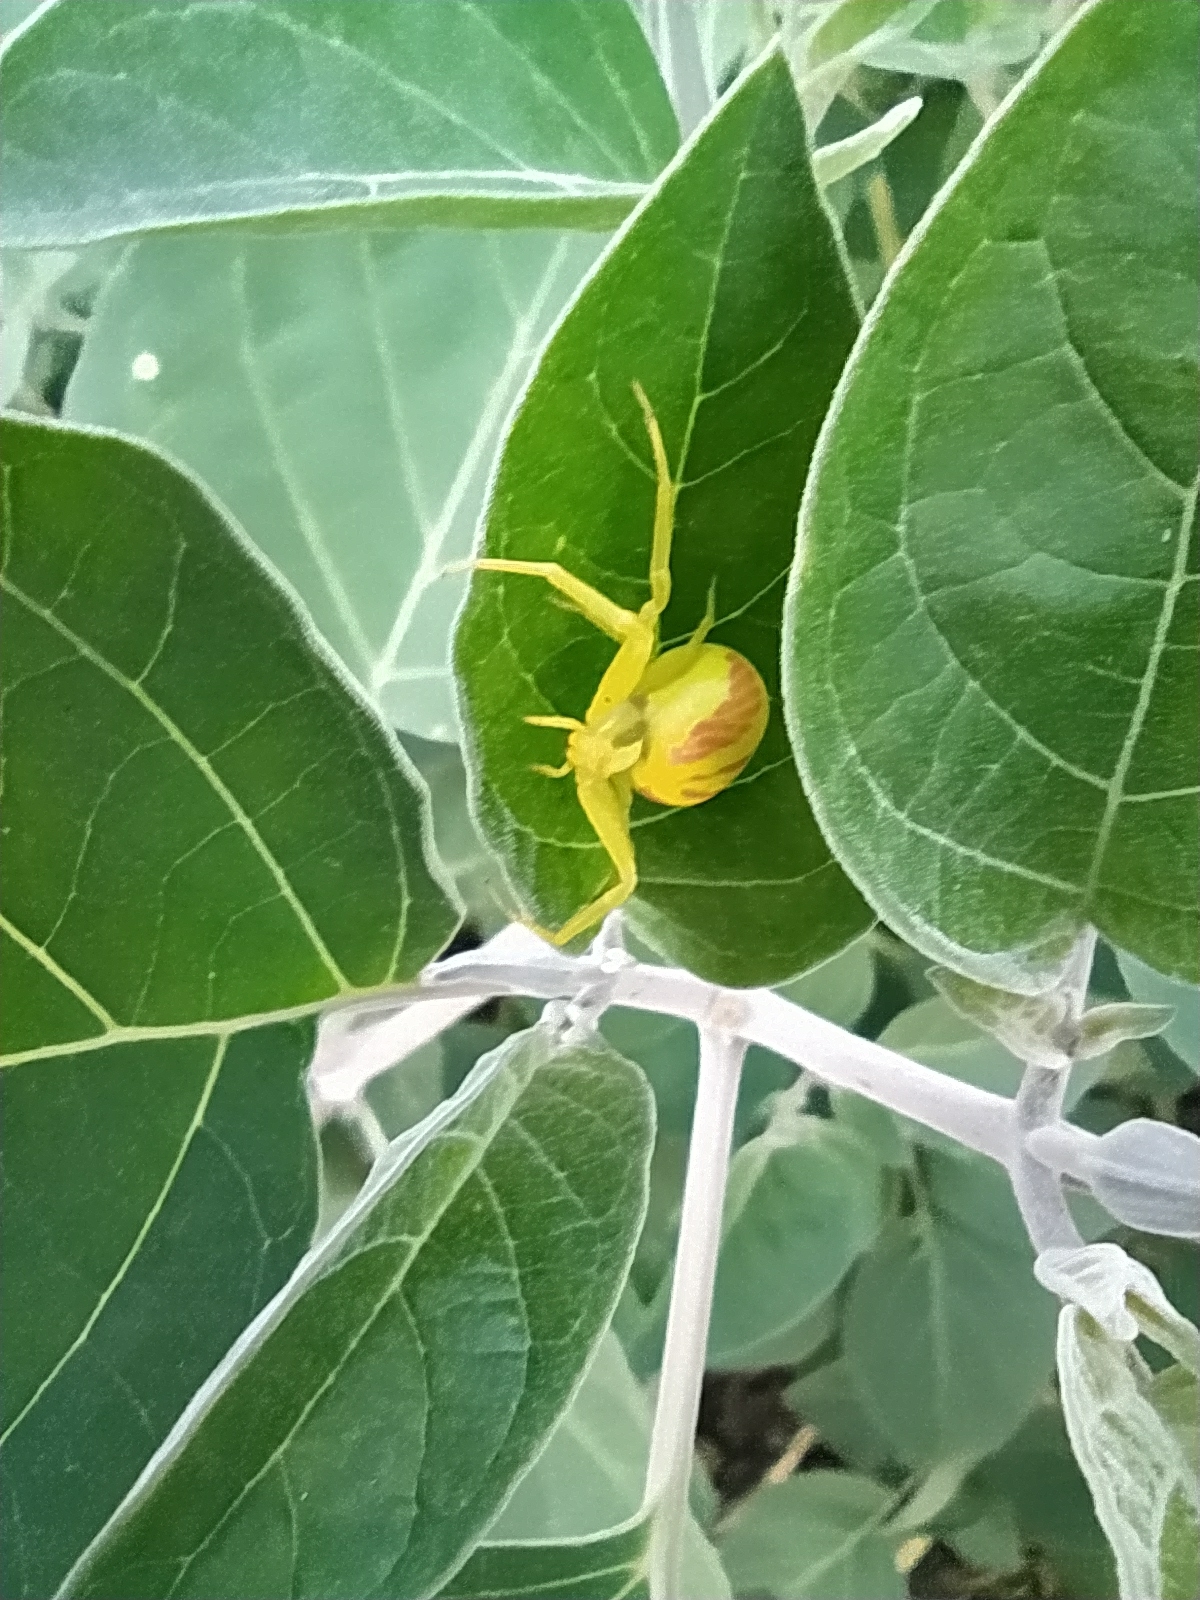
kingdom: Animalia
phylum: Arthropoda
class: Arachnida
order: Araneae
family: Thomisidae
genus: Misumena
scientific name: Misumena vatia
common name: Goldenrod crab spider
